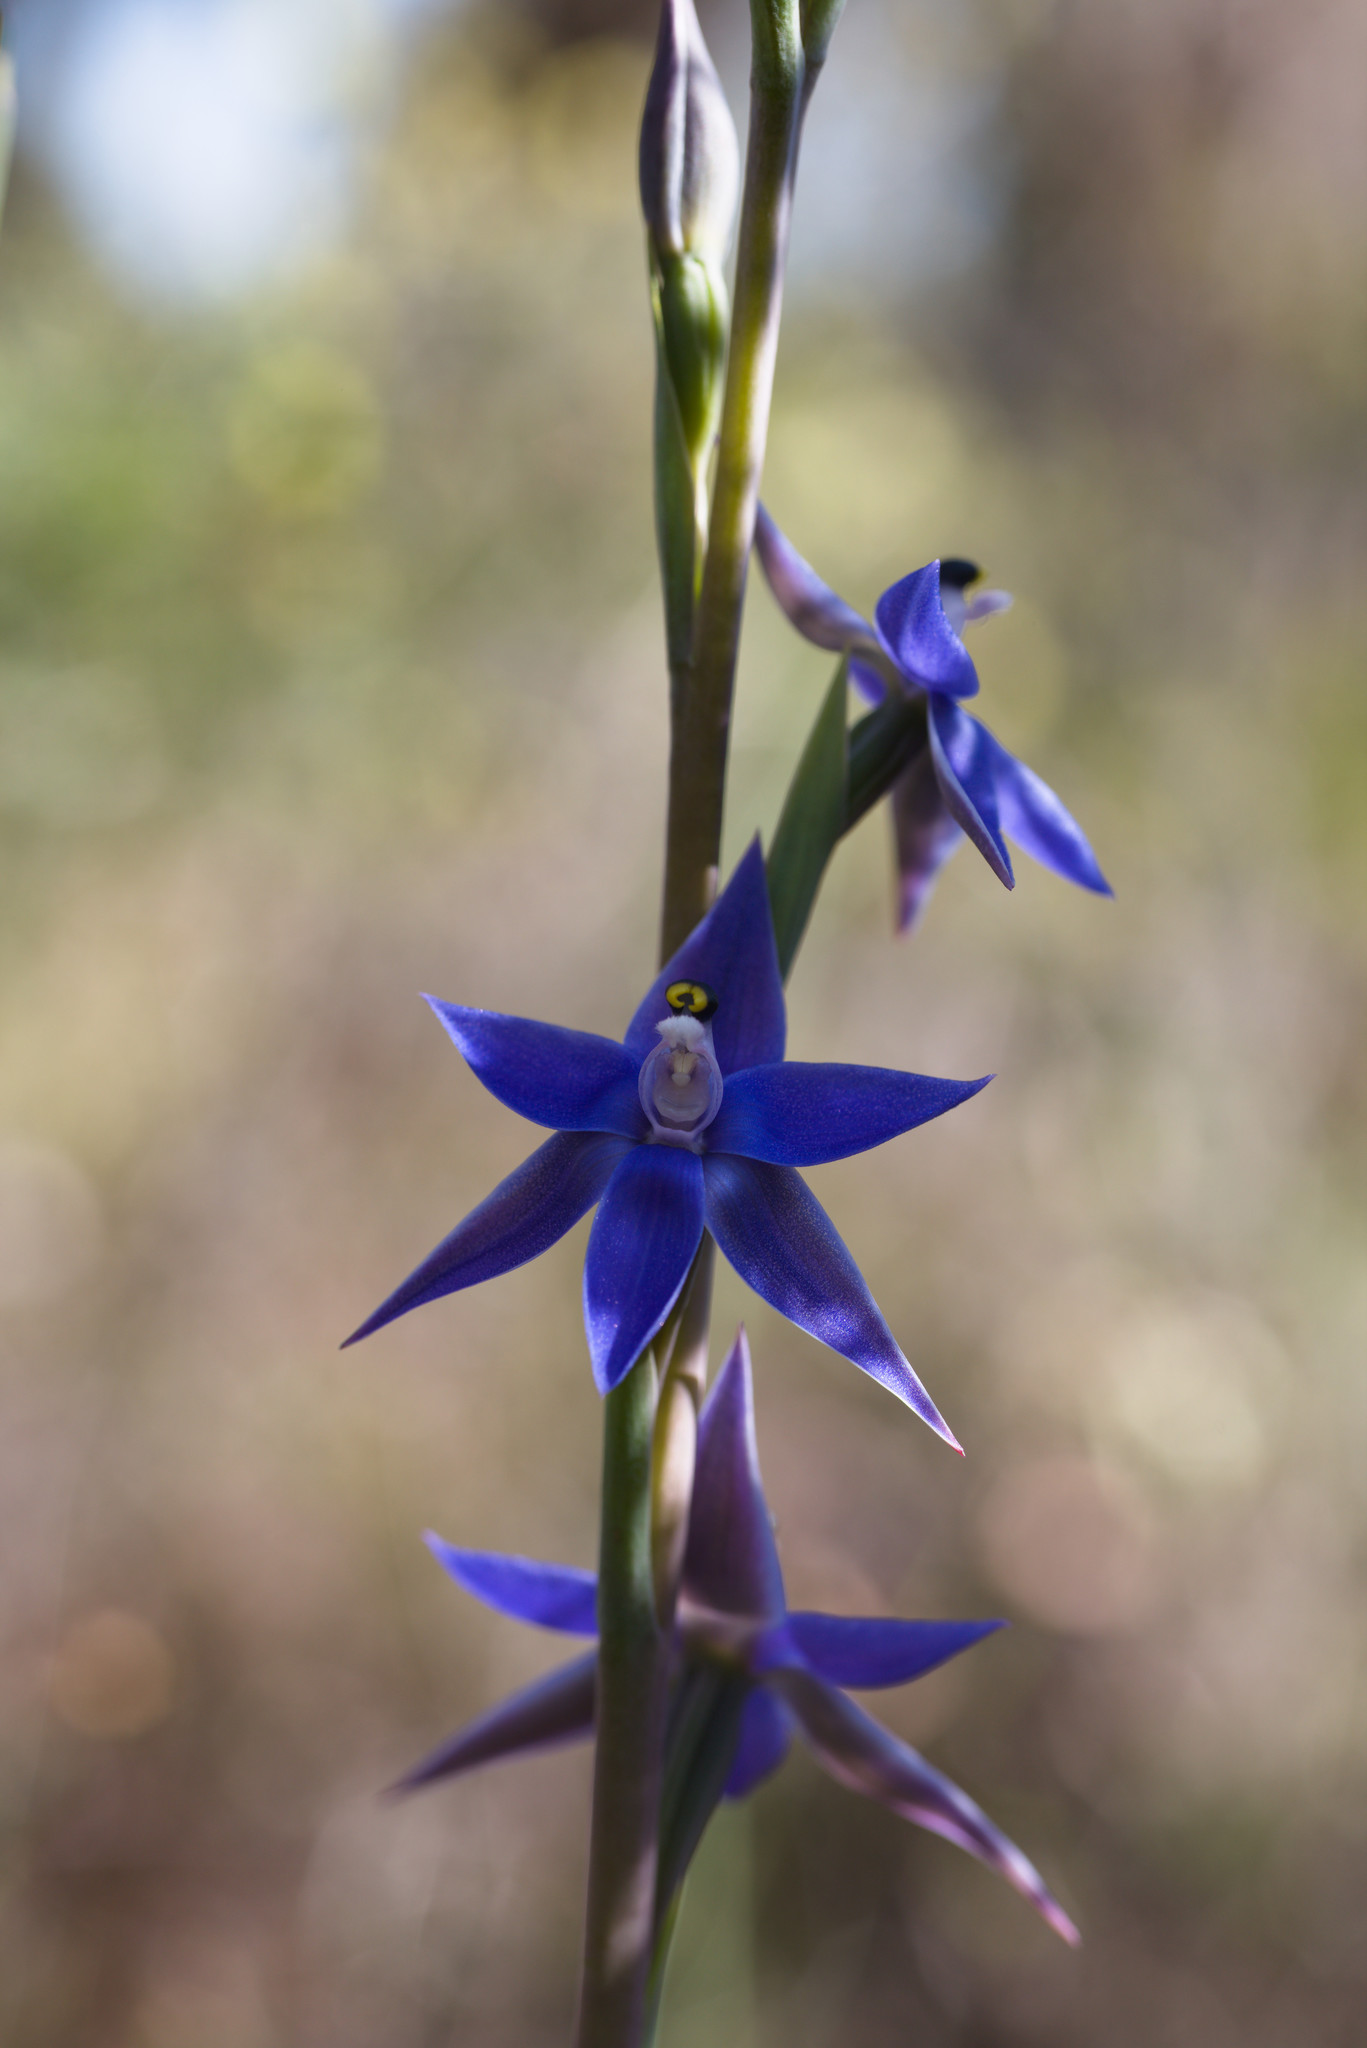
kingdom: Plantae
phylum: Tracheophyta
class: Liliopsida
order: Asparagales
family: Orchidaceae
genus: Thelymitra
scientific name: Thelymitra macrophylla
